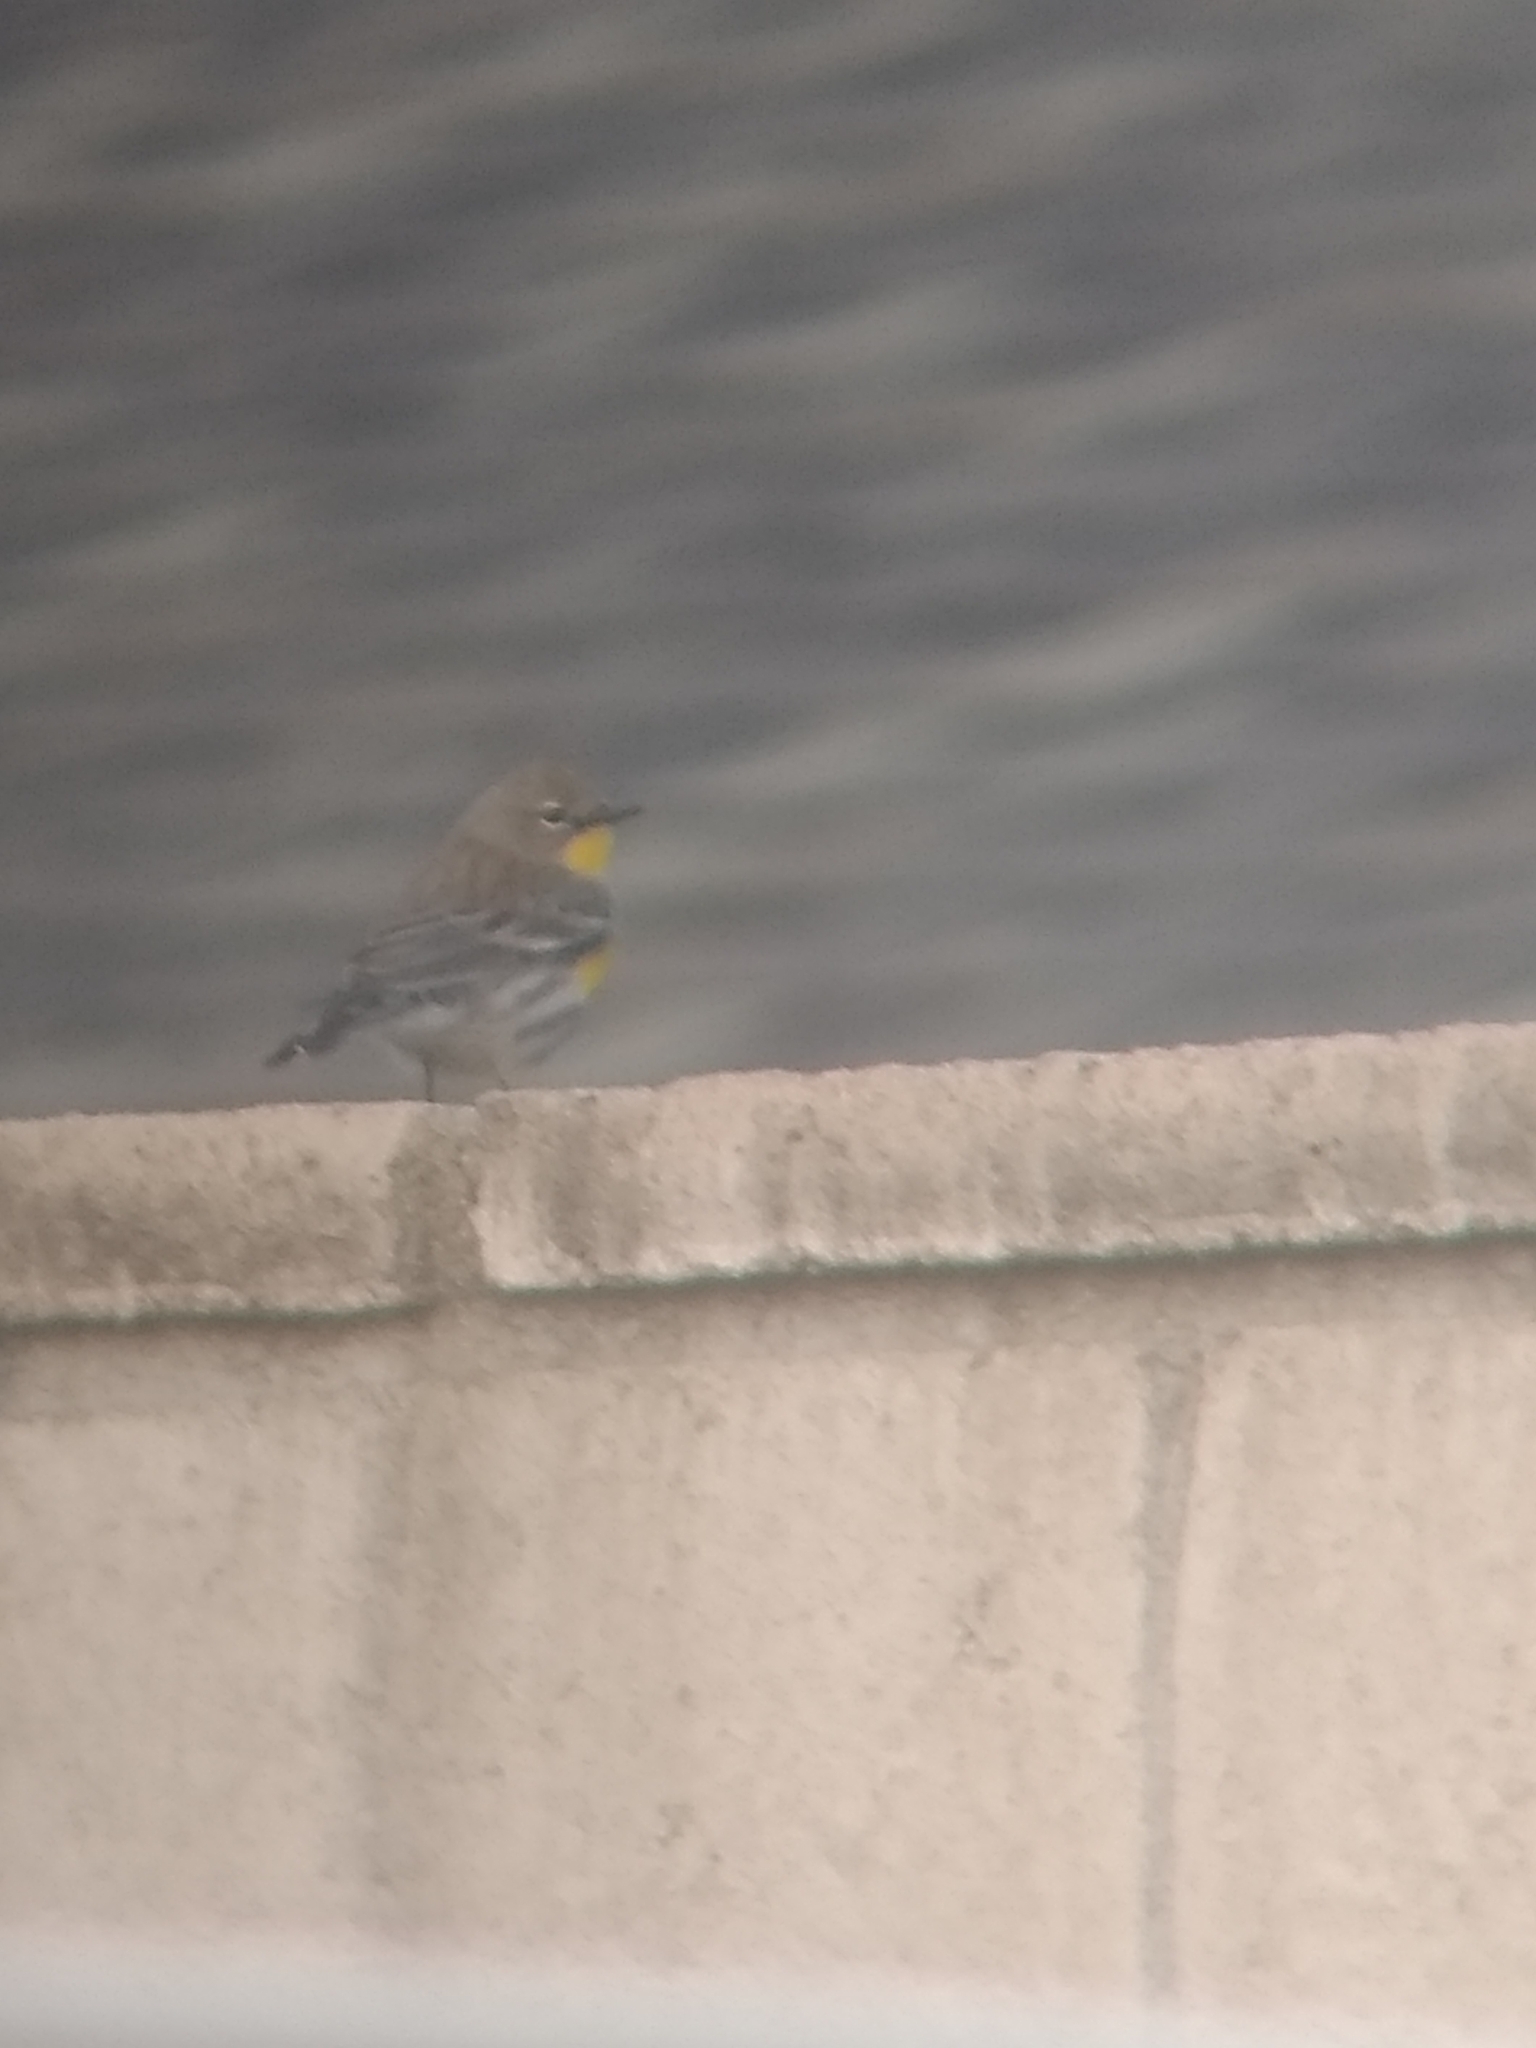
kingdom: Animalia
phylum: Chordata
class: Aves
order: Passeriformes
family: Parulidae
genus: Setophaga
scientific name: Setophaga coronata
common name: Myrtle warbler
